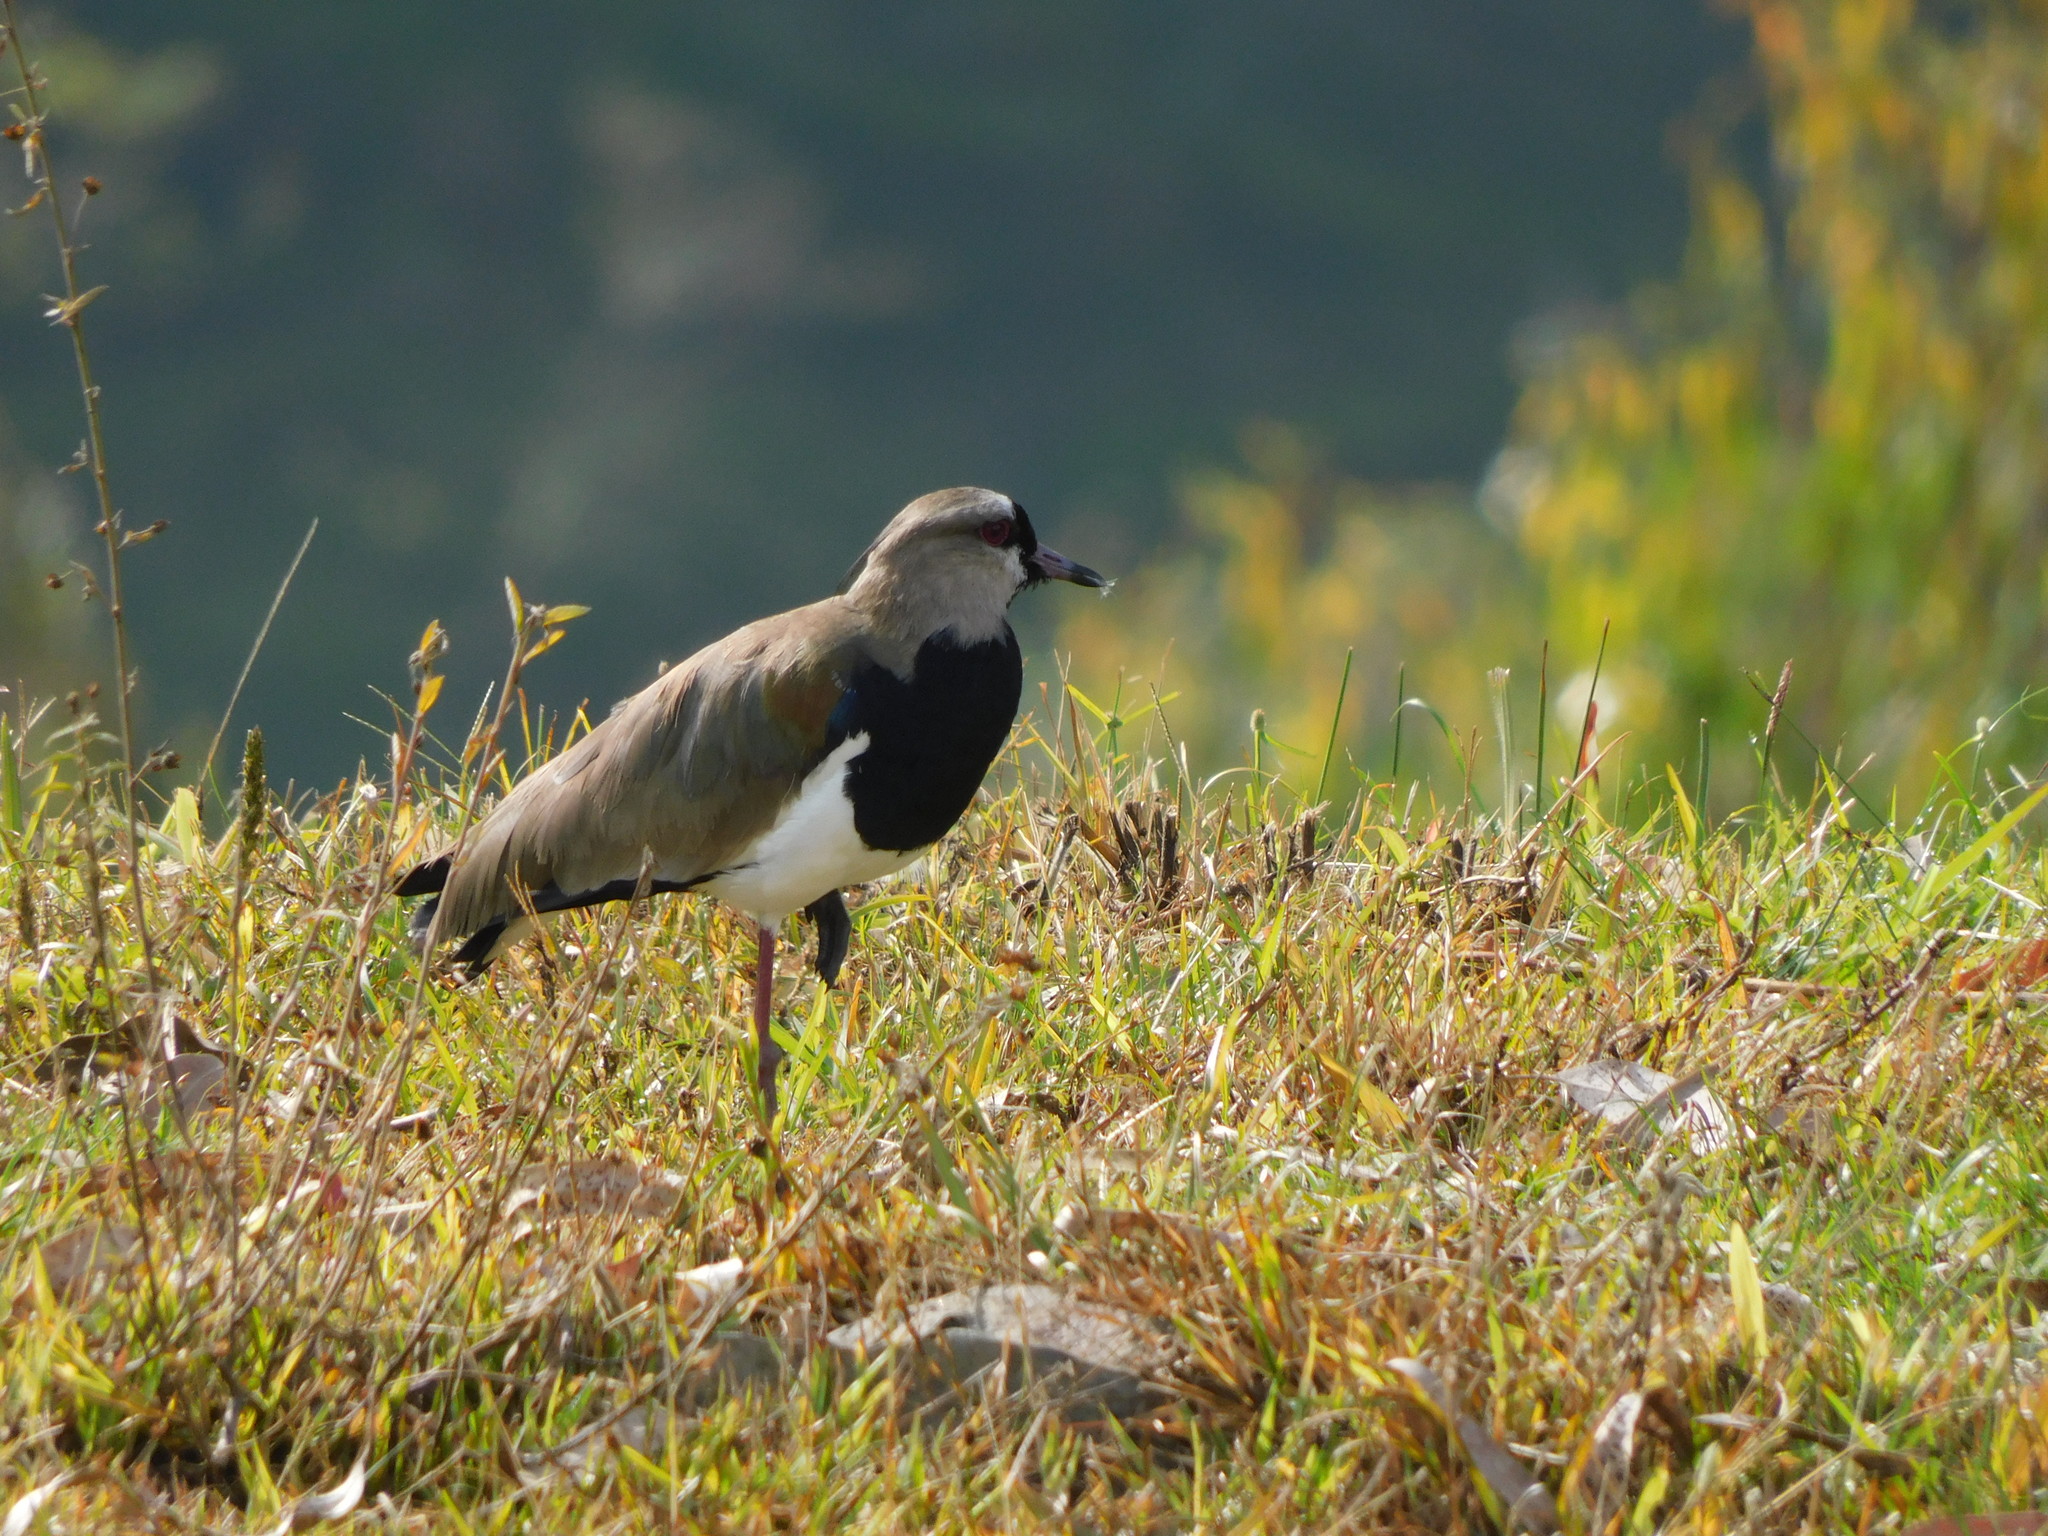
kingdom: Animalia
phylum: Chordata
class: Aves
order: Charadriiformes
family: Charadriidae
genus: Vanellus
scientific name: Vanellus chilensis
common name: Southern lapwing
